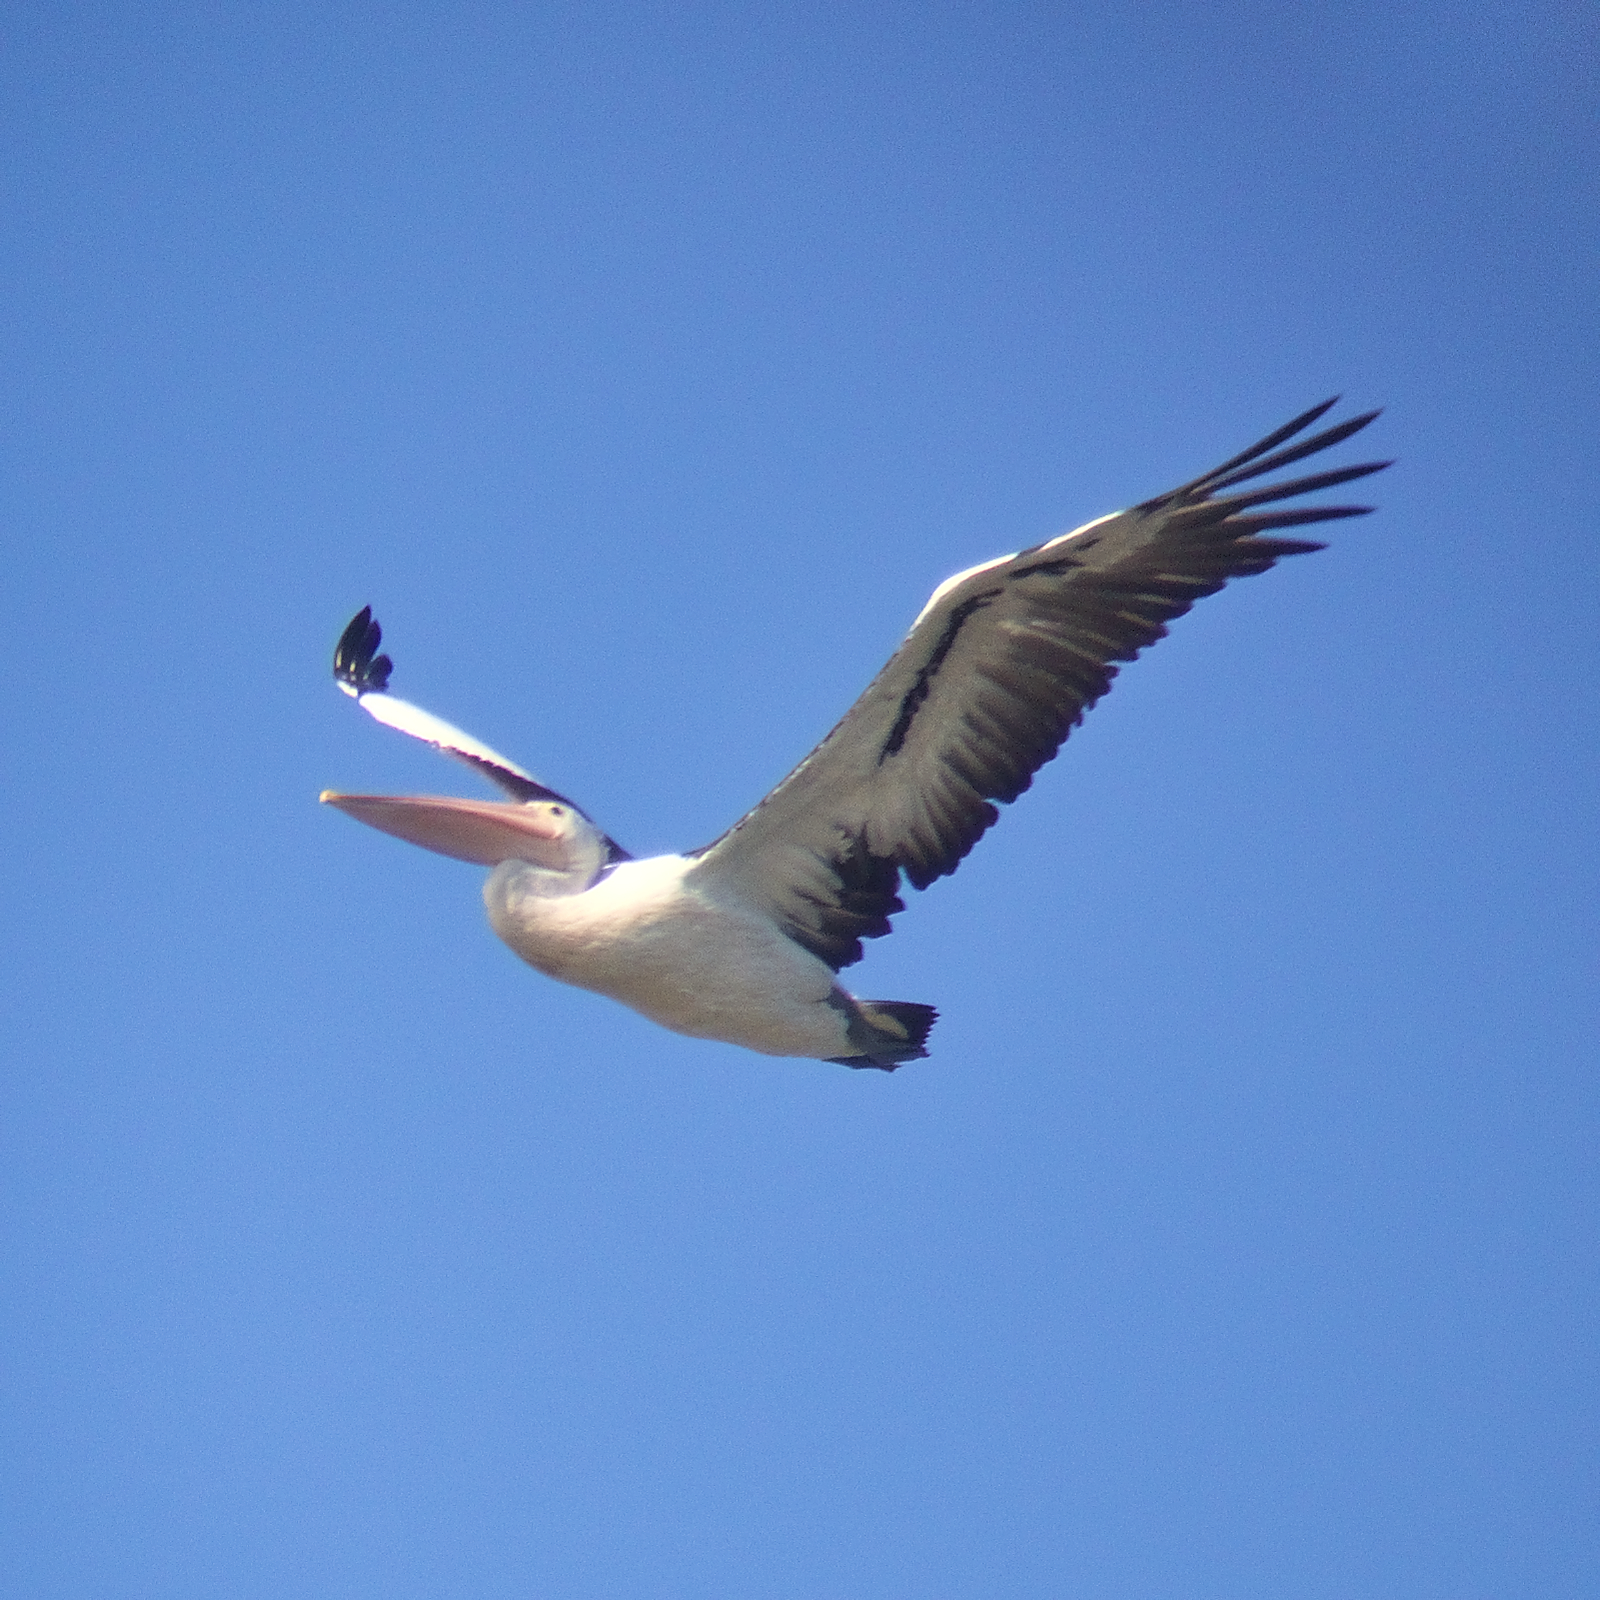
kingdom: Animalia
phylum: Chordata
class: Aves
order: Pelecaniformes
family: Pelecanidae
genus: Pelecanus
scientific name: Pelecanus conspicillatus
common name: Australian pelican
